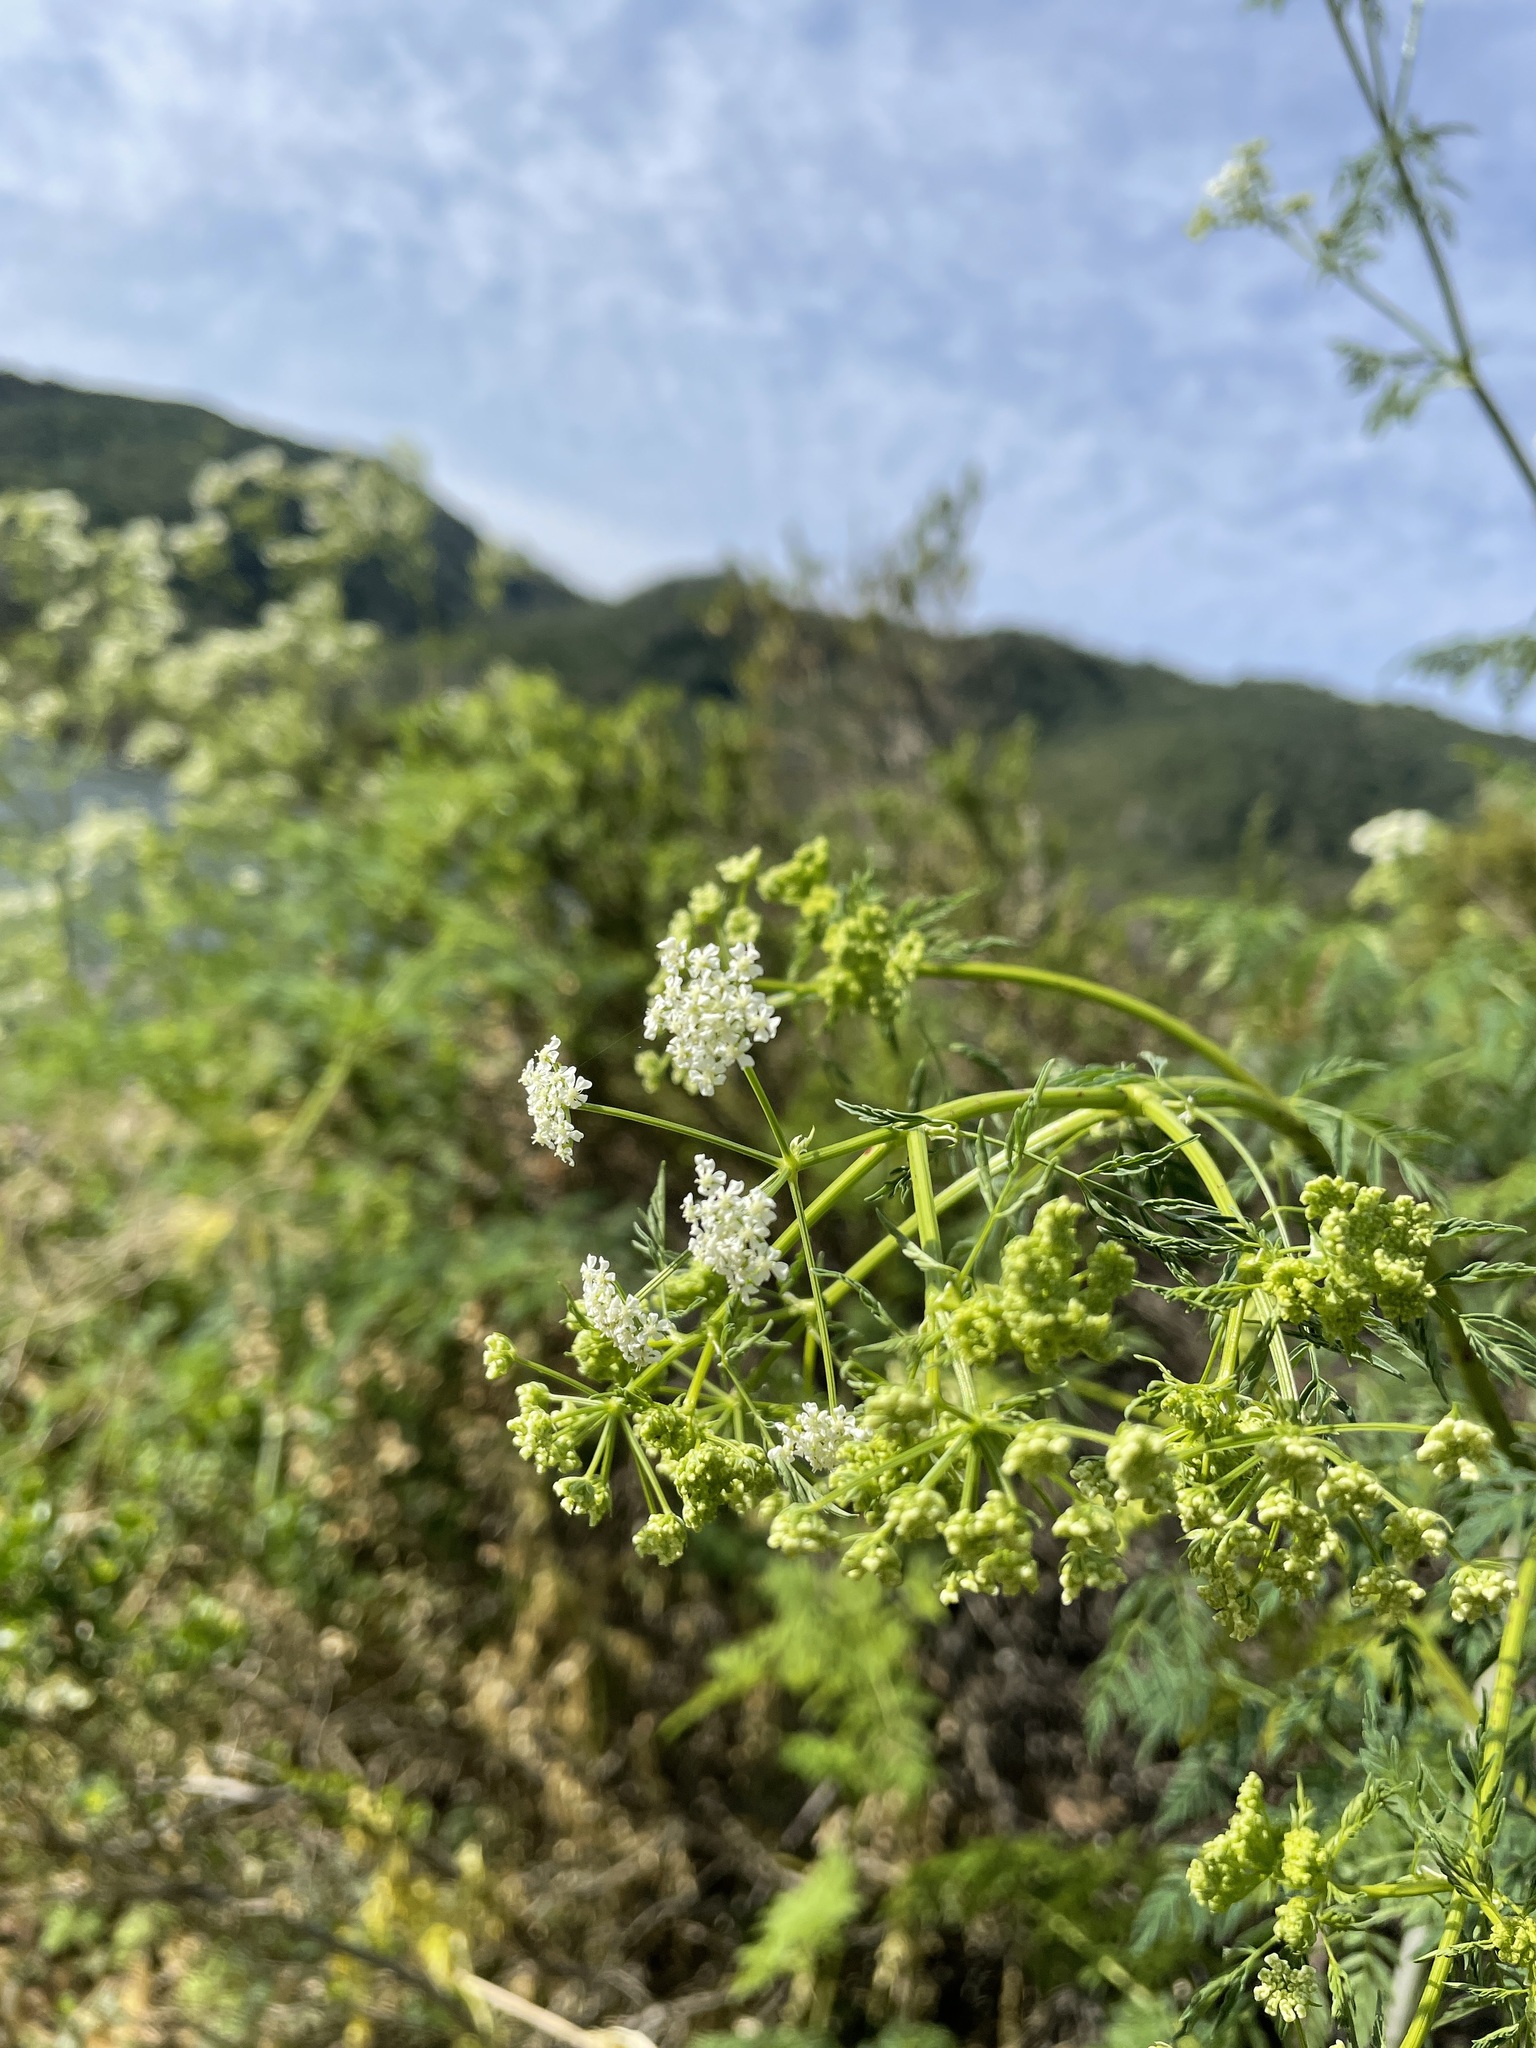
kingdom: Plantae
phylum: Tracheophyta
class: Magnoliopsida
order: Apiales
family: Apiaceae
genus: Conium
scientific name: Conium maculatum
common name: Hemlock
